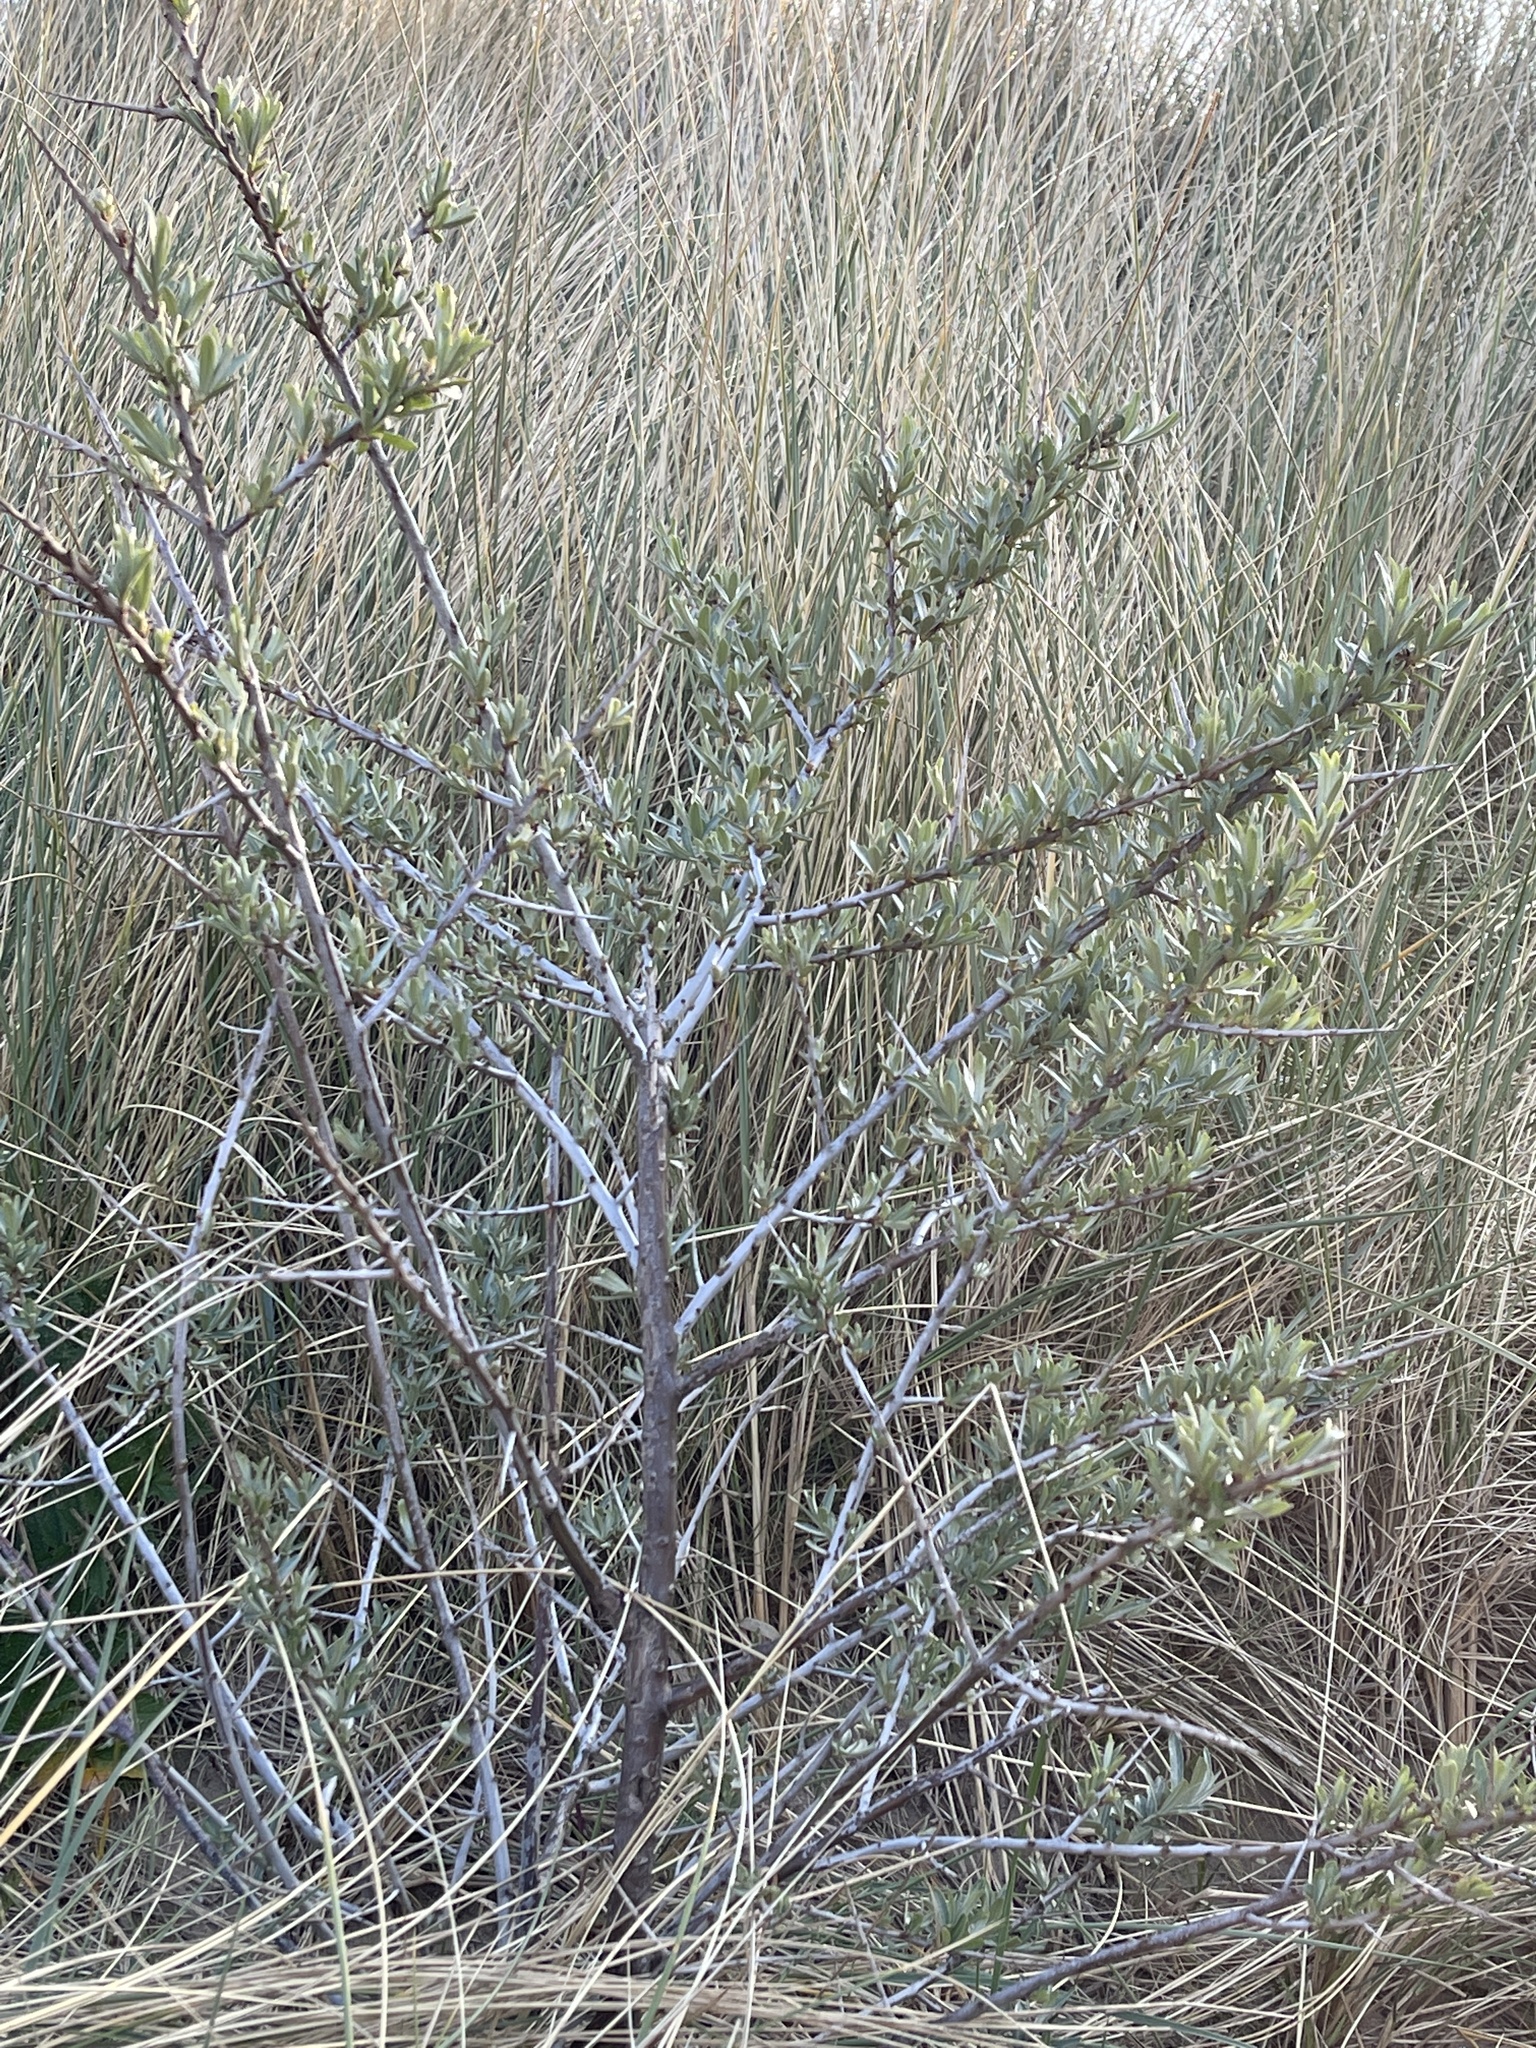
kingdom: Plantae
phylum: Tracheophyta
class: Magnoliopsida
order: Rosales
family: Elaeagnaceae
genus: Hippophae
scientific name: Hippophae rhamnoides
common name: Sea-buckthorn
